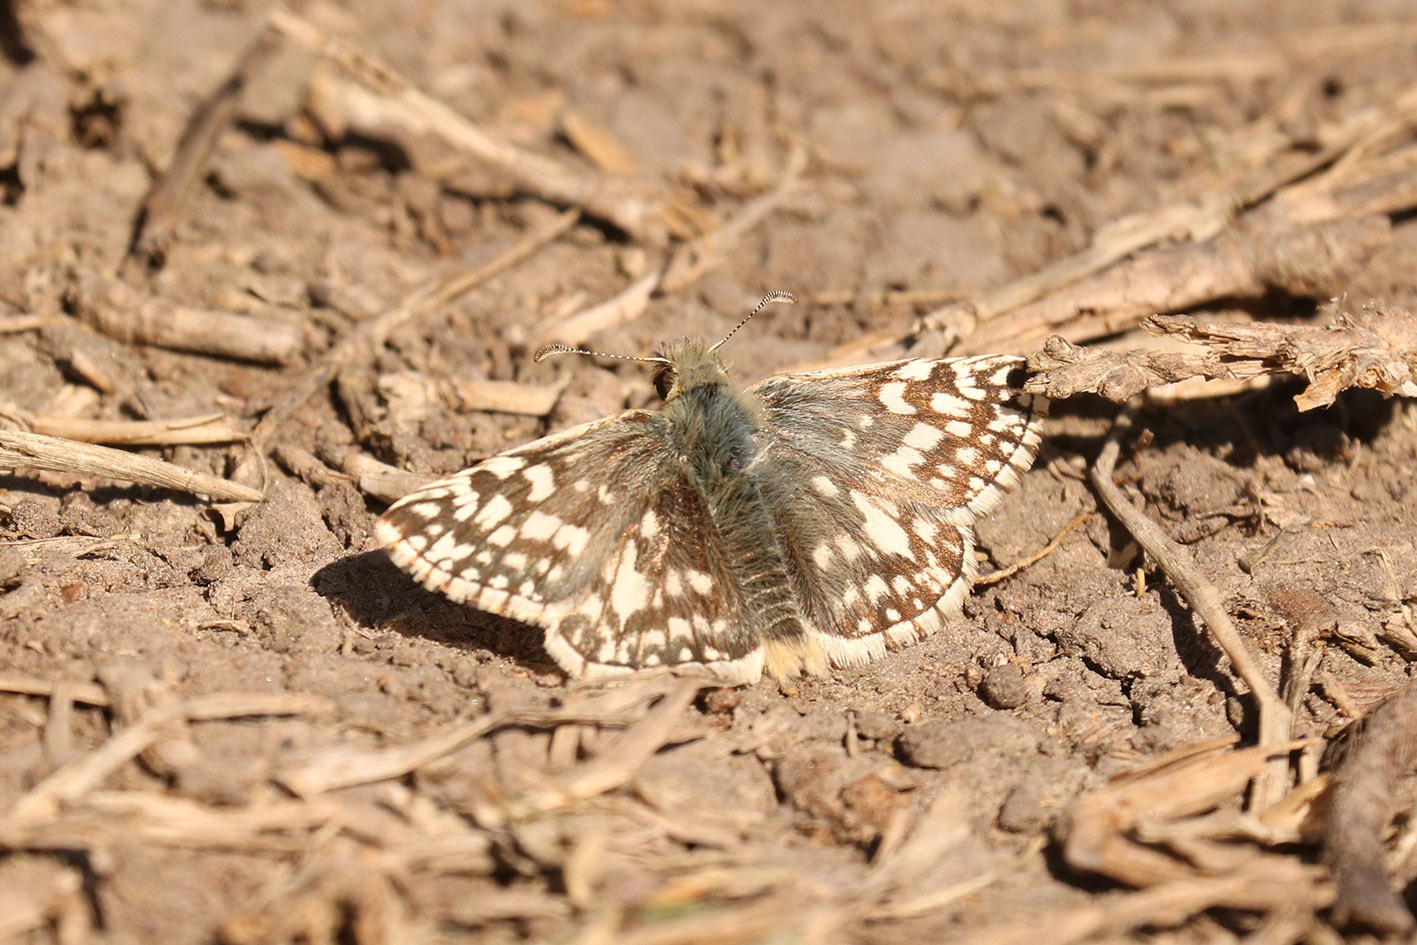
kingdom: Animalia
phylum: Arthropoda
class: Insecta
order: Lepidoptera
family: Hesperiidae
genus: Heliopetes
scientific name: Heliopetes americanus
